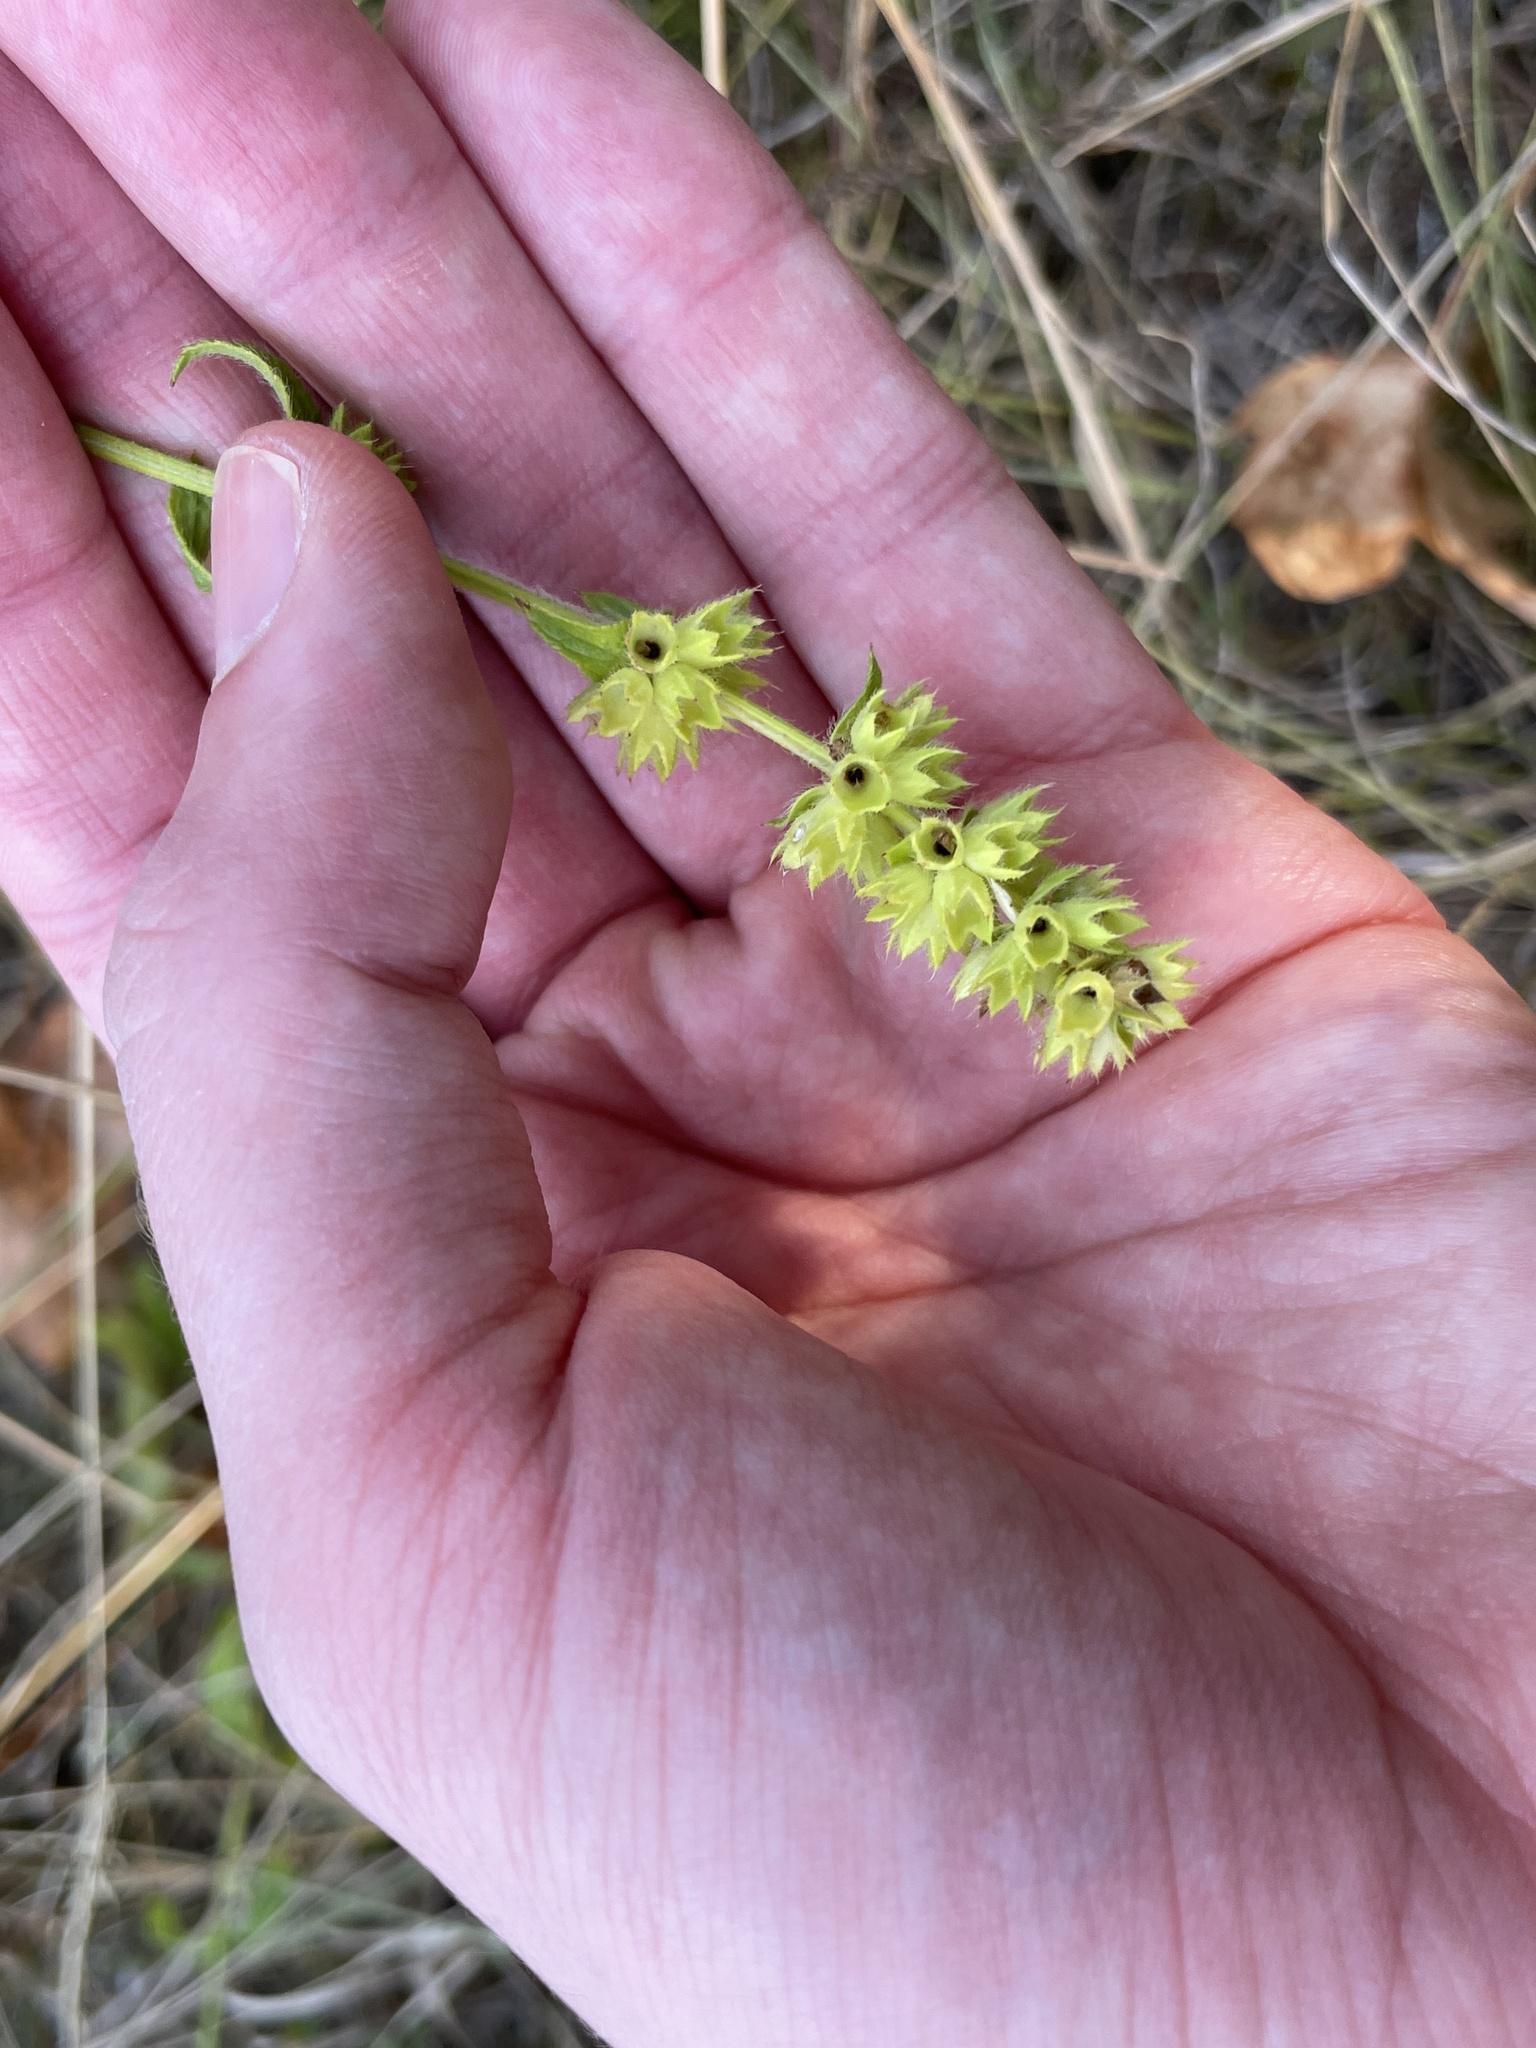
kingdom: Plantae
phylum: Tracheophyta
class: Magnoliopsida
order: Lamiales
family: Lamiaceae
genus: Stachys
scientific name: Stachys recta
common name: Perennial yellow-woundwort
